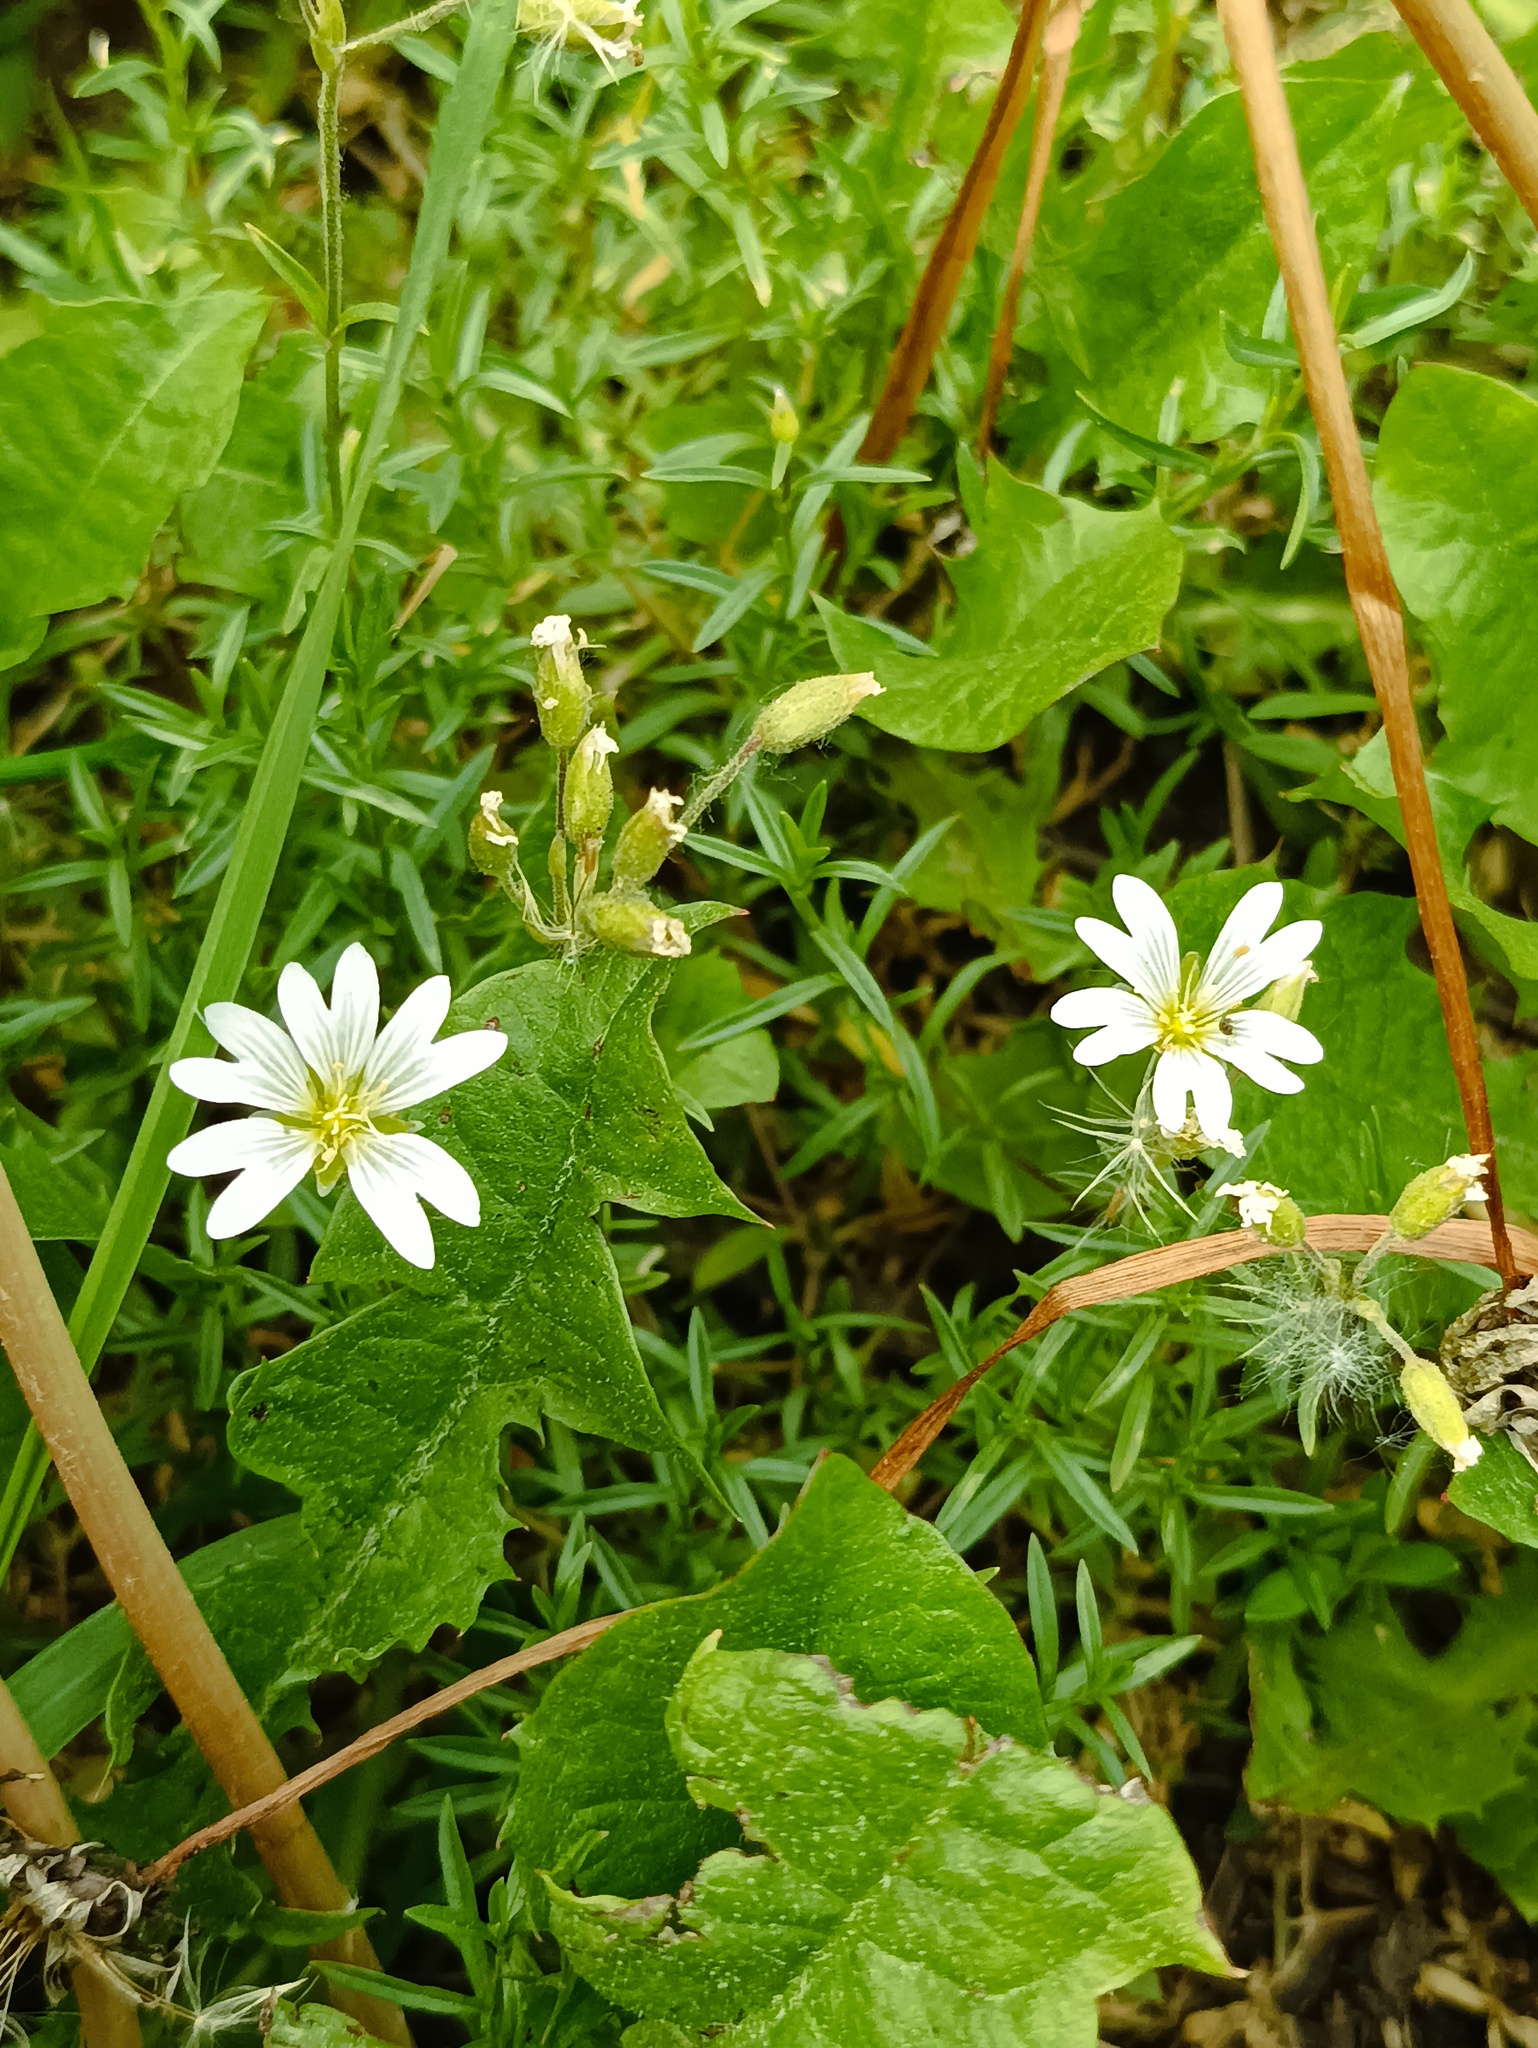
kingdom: Plantae
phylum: Tracheophyta
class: Magnoliopsida
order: Caryophyllales
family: Caryophyllaceae
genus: Cerastium
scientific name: Cerastium arvense
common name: Field mouse-ear
